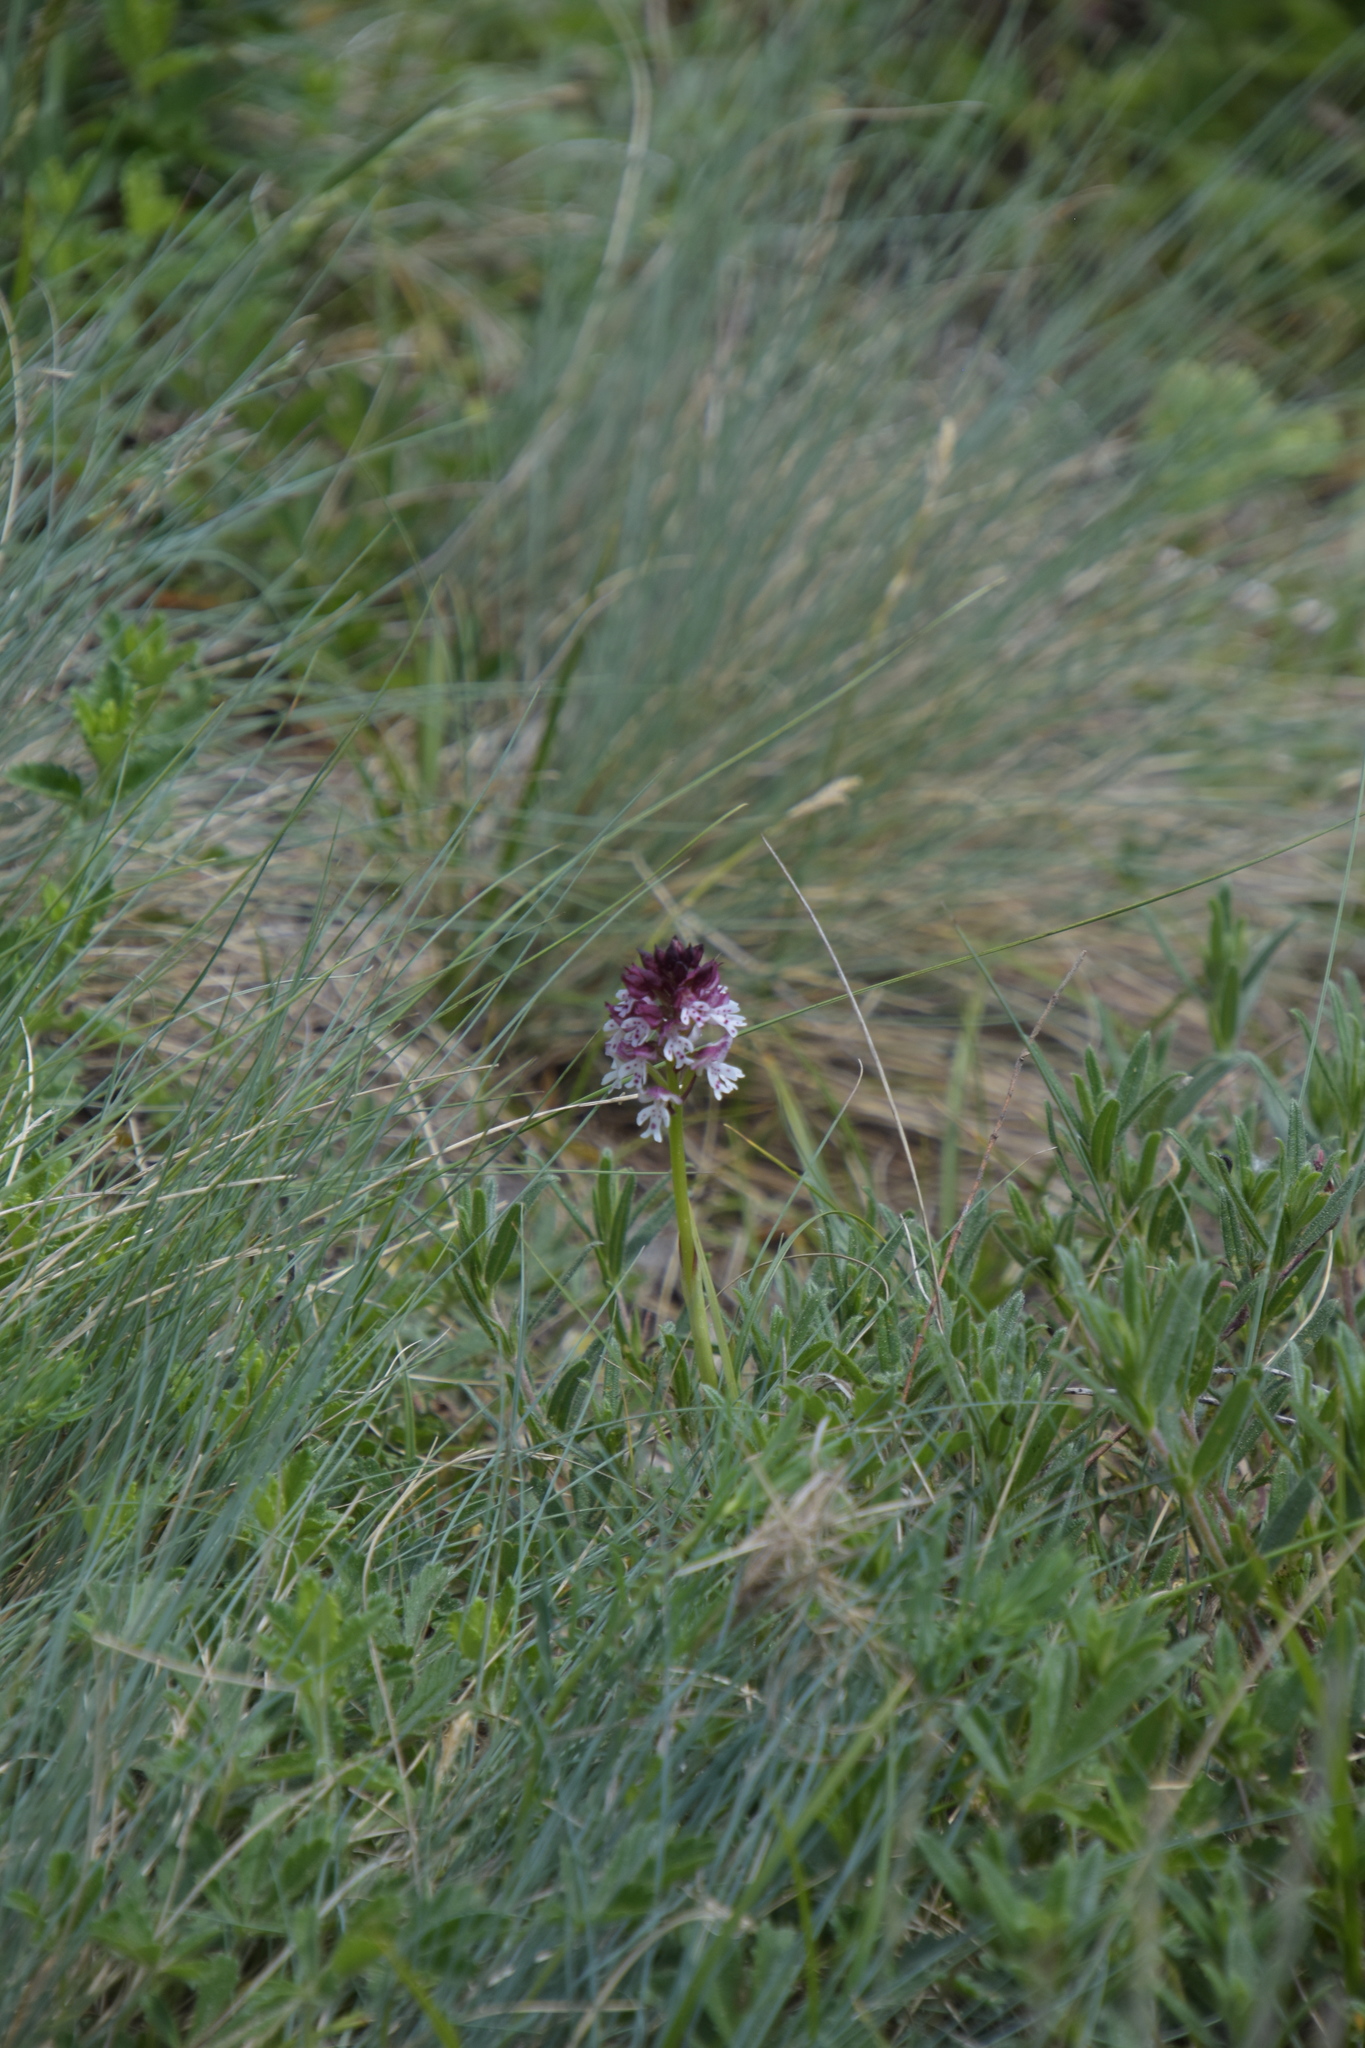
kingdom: Plantae
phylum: Tracheophyta
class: Liliopsida
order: Asparagales
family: Orchidaceae
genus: Neotinea
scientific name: Neotinea ustulata
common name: Burnt orchid
